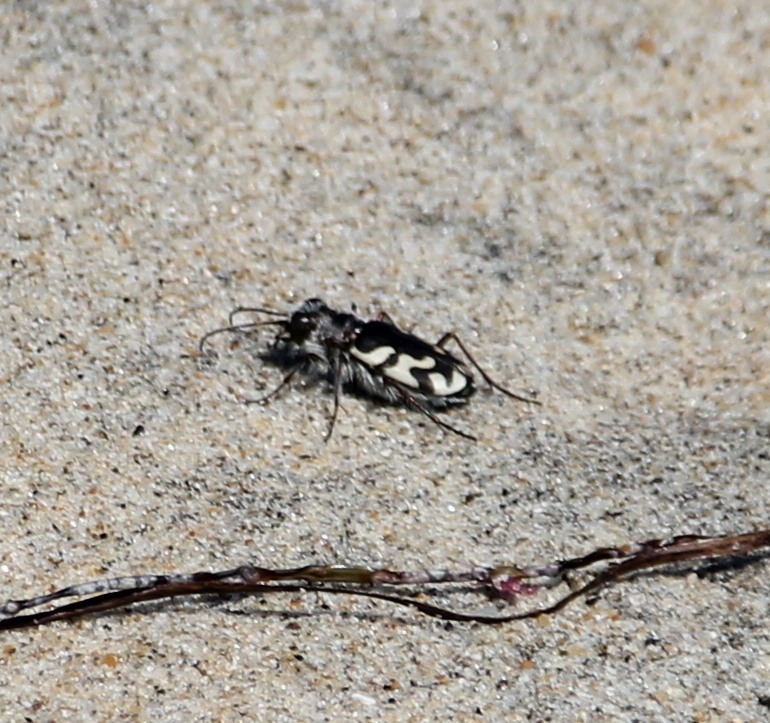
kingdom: Animalia
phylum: Arthropoda
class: Insecta
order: Coleoptera
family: Carabidae
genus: Cicindela
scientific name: Cicindela latesignata
